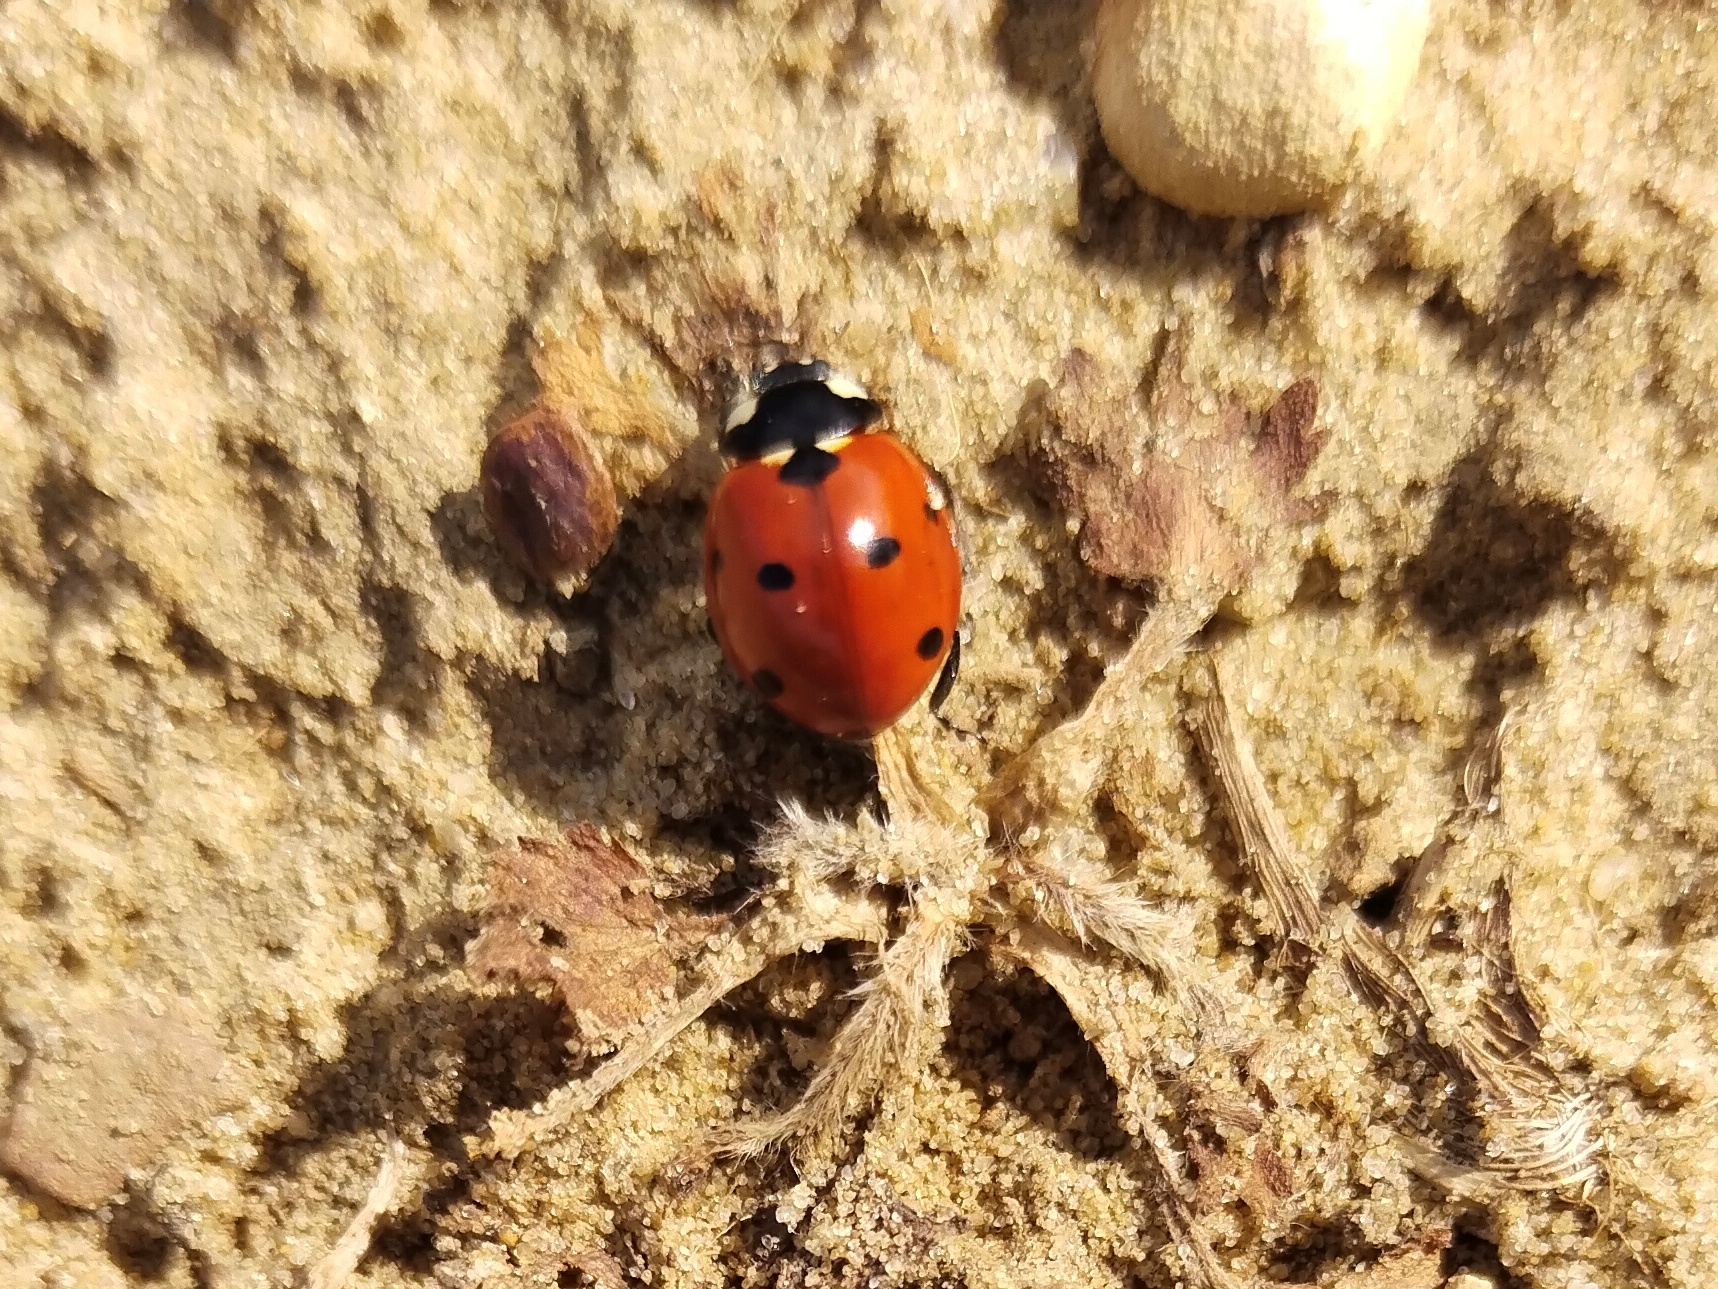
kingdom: Animalia
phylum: Arthropoda
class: Insecta
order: Coleoptera
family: Coccinellidae
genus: Coccinella
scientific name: Coccinella septempunctata
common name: Sevenspotted lady beetle
